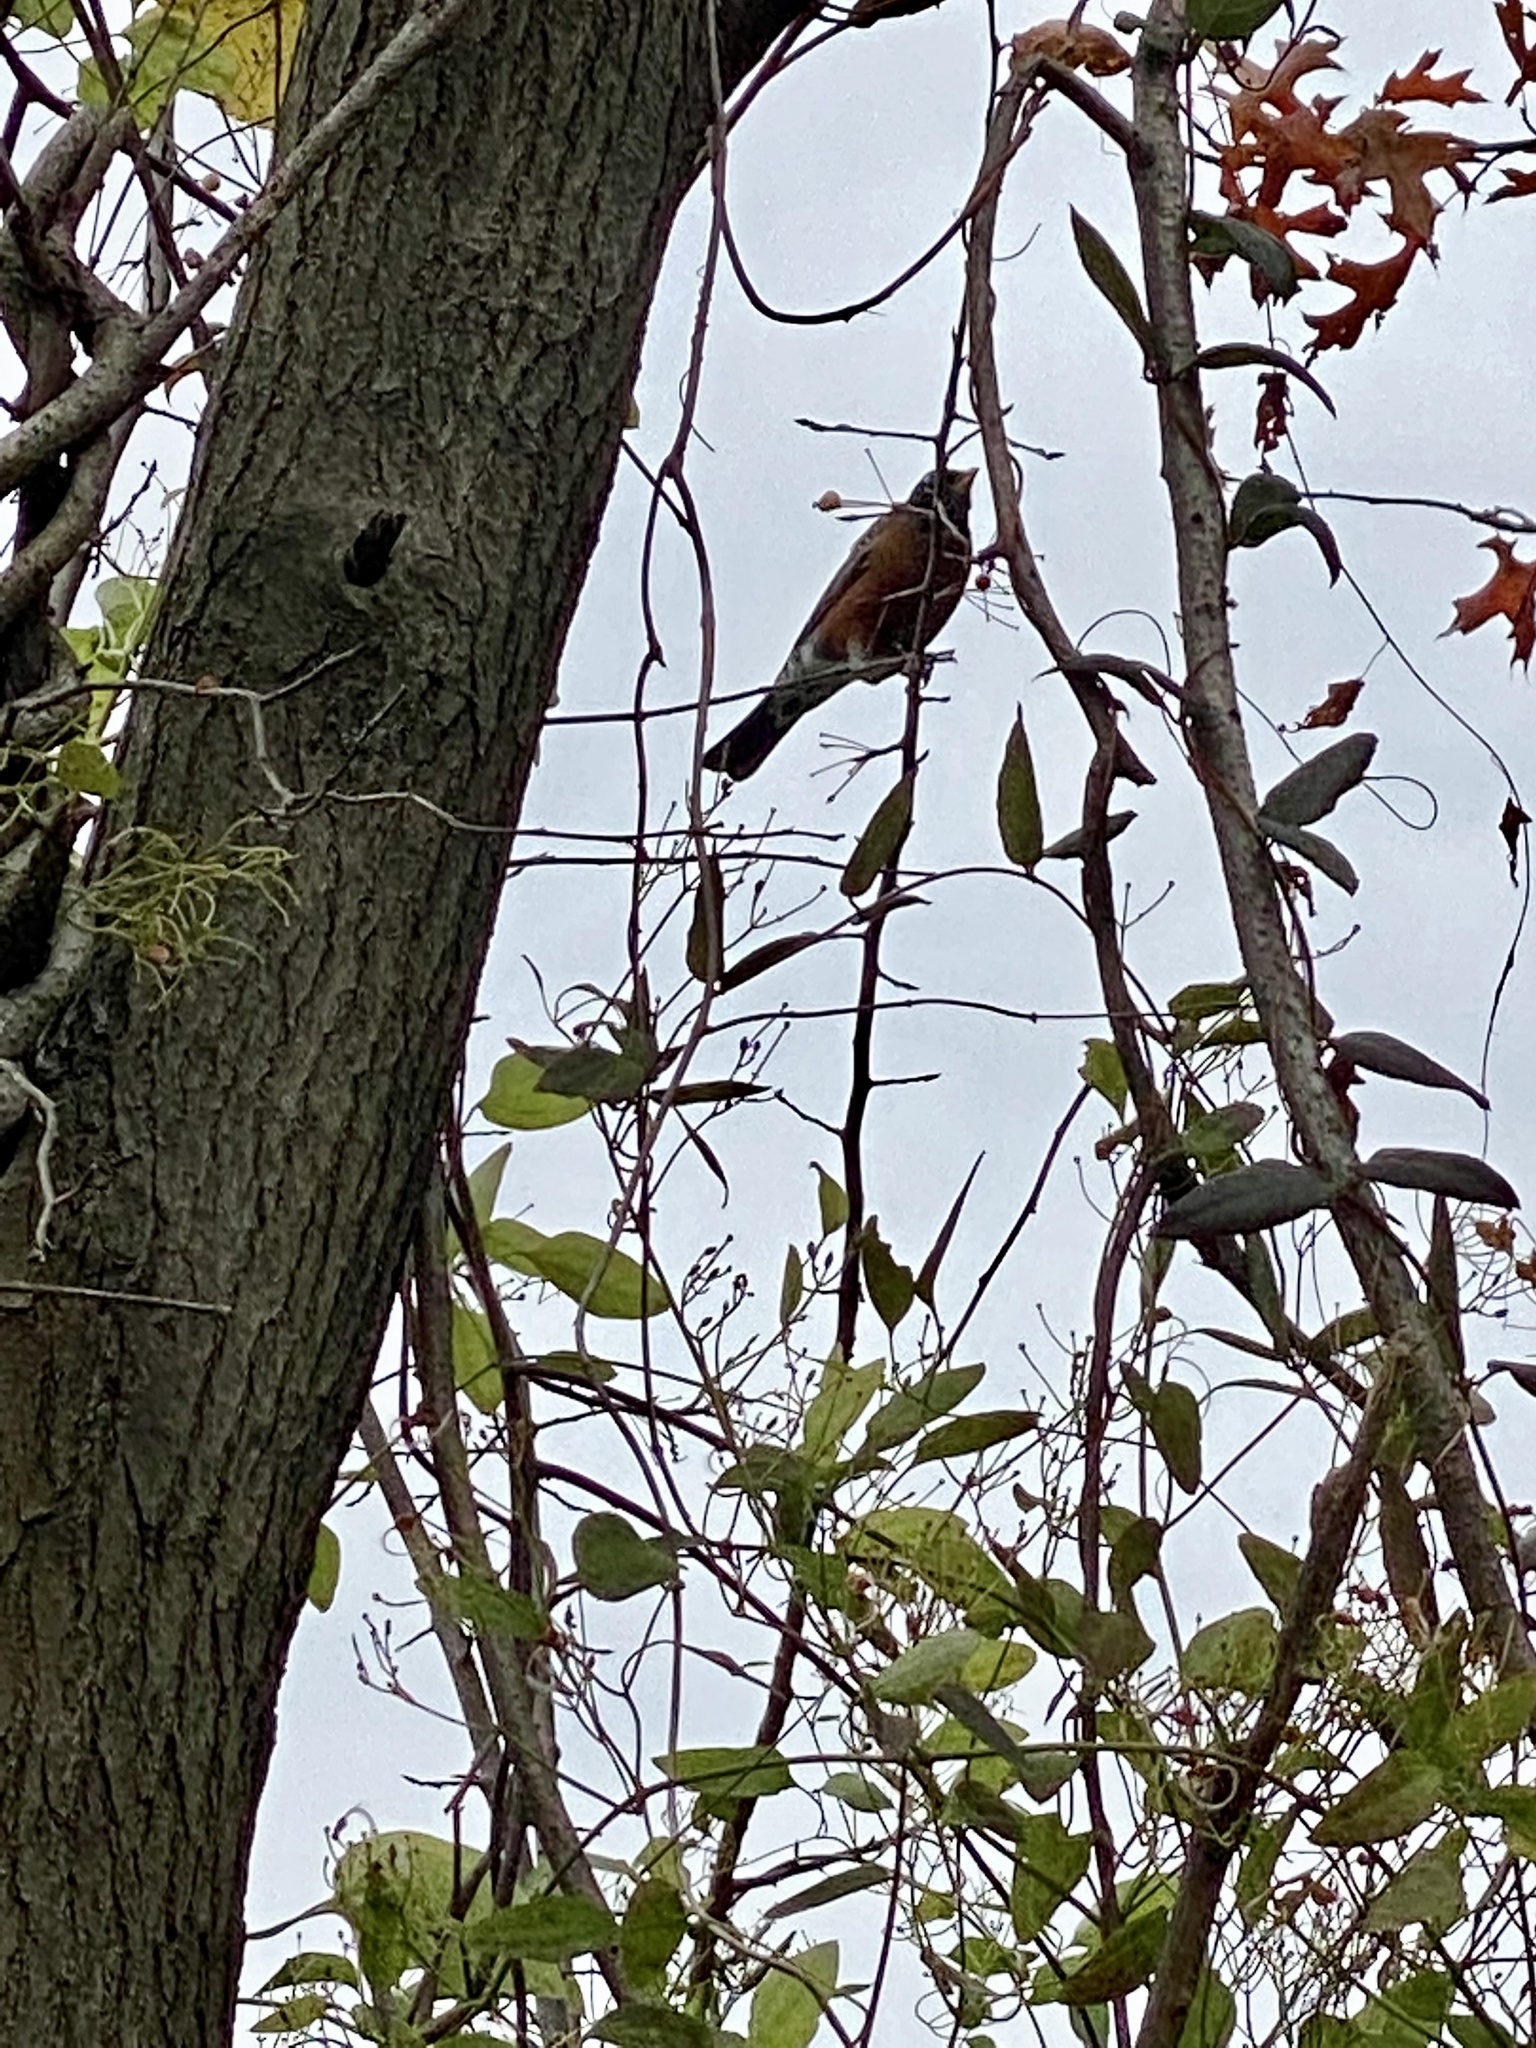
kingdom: Animalia
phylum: Chordata
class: Aves
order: Passeriformes
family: Turdidae
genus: Turdus
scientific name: Turdus migratorius
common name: American robin
